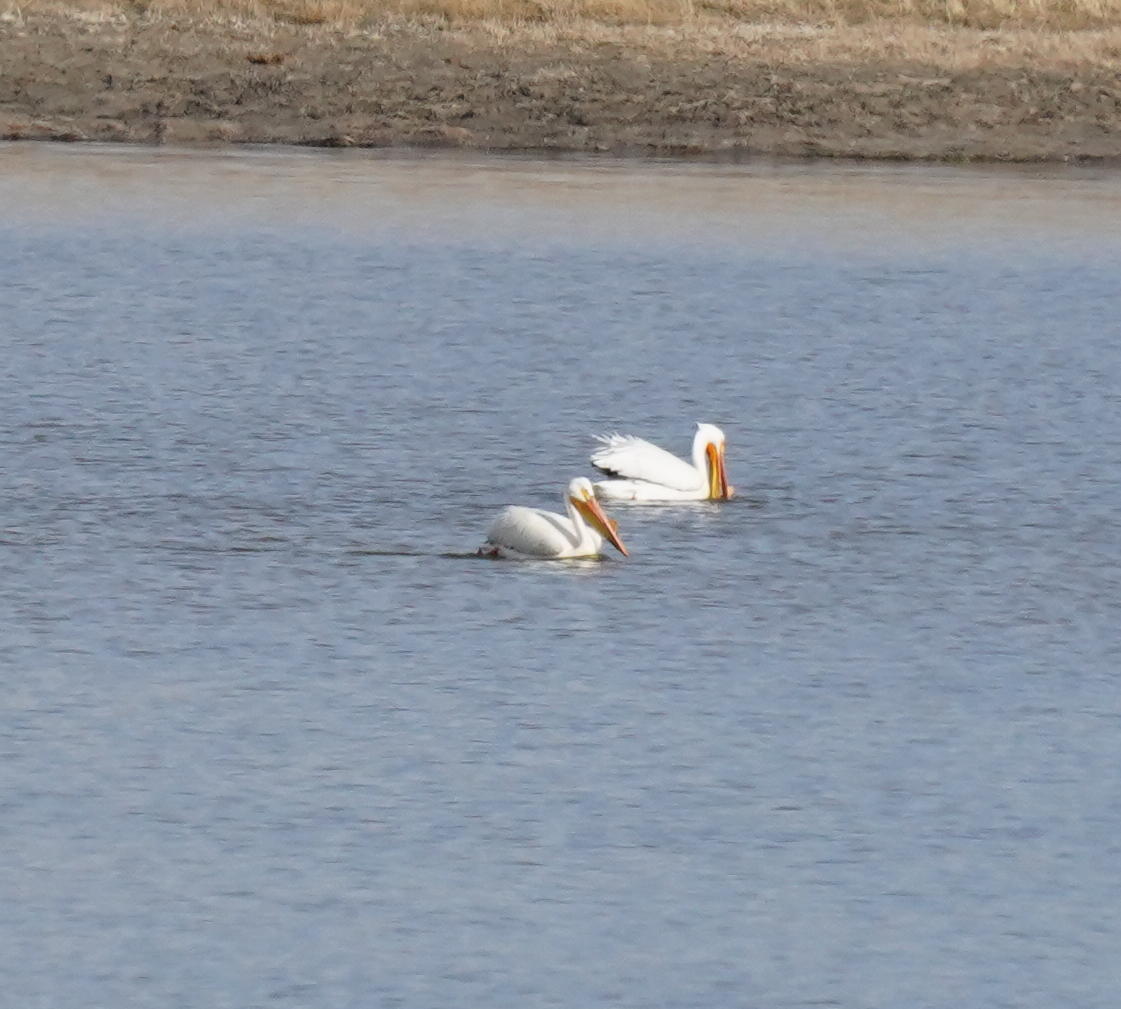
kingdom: Animalia
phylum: Chordata
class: Aves
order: Pelecaniformes
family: Pelecanidae
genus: Pelecanus
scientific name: Pelecanus erythrorhynchos
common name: American white pelican
